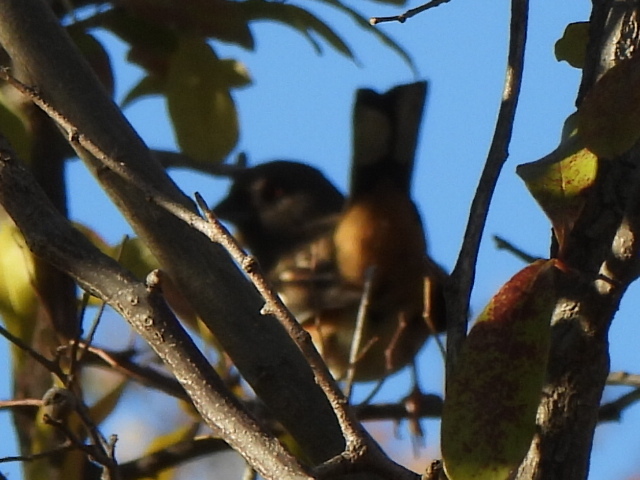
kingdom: Animalia
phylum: Chordata
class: Aves
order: Passeriformes
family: Passerellidae
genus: Pipilo
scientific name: Pipilo maculatus
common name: Spotted towhee
